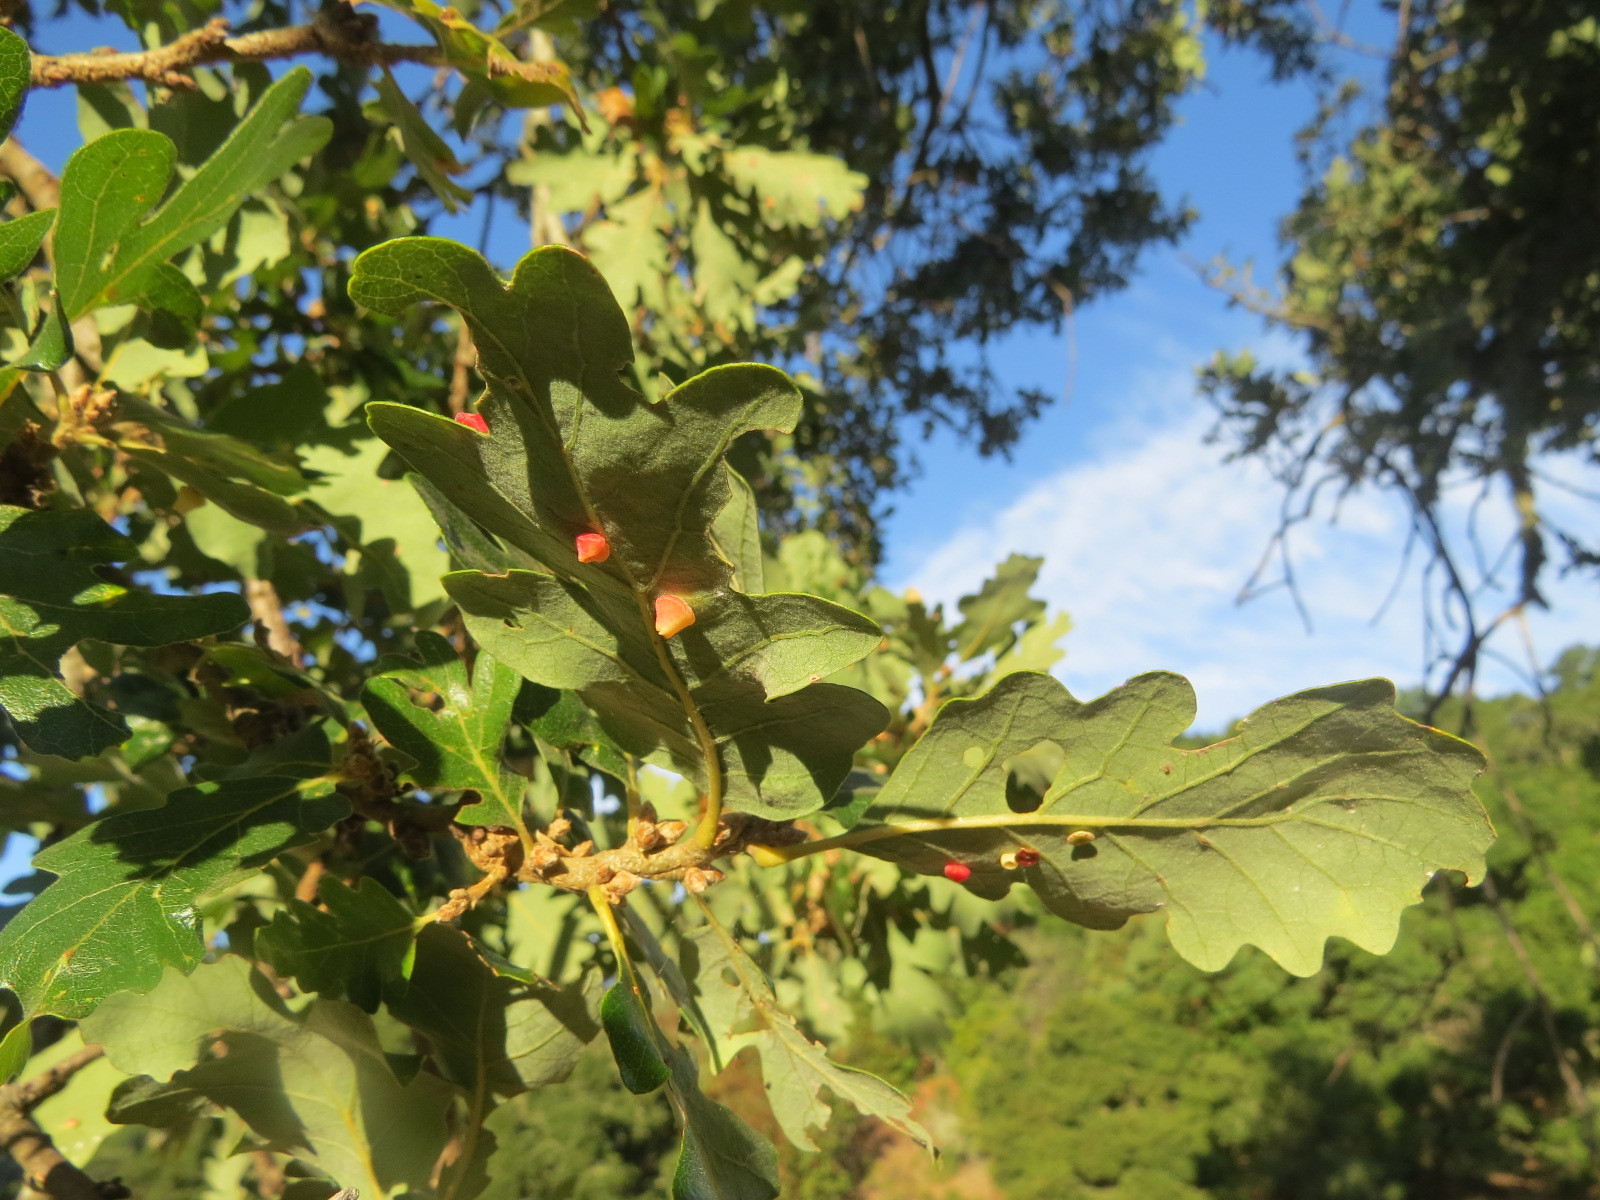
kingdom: Animalia
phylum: Arthropoda
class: Insecta
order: Hymenoptera
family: Cynipidae
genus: Andricus
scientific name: Andricus
